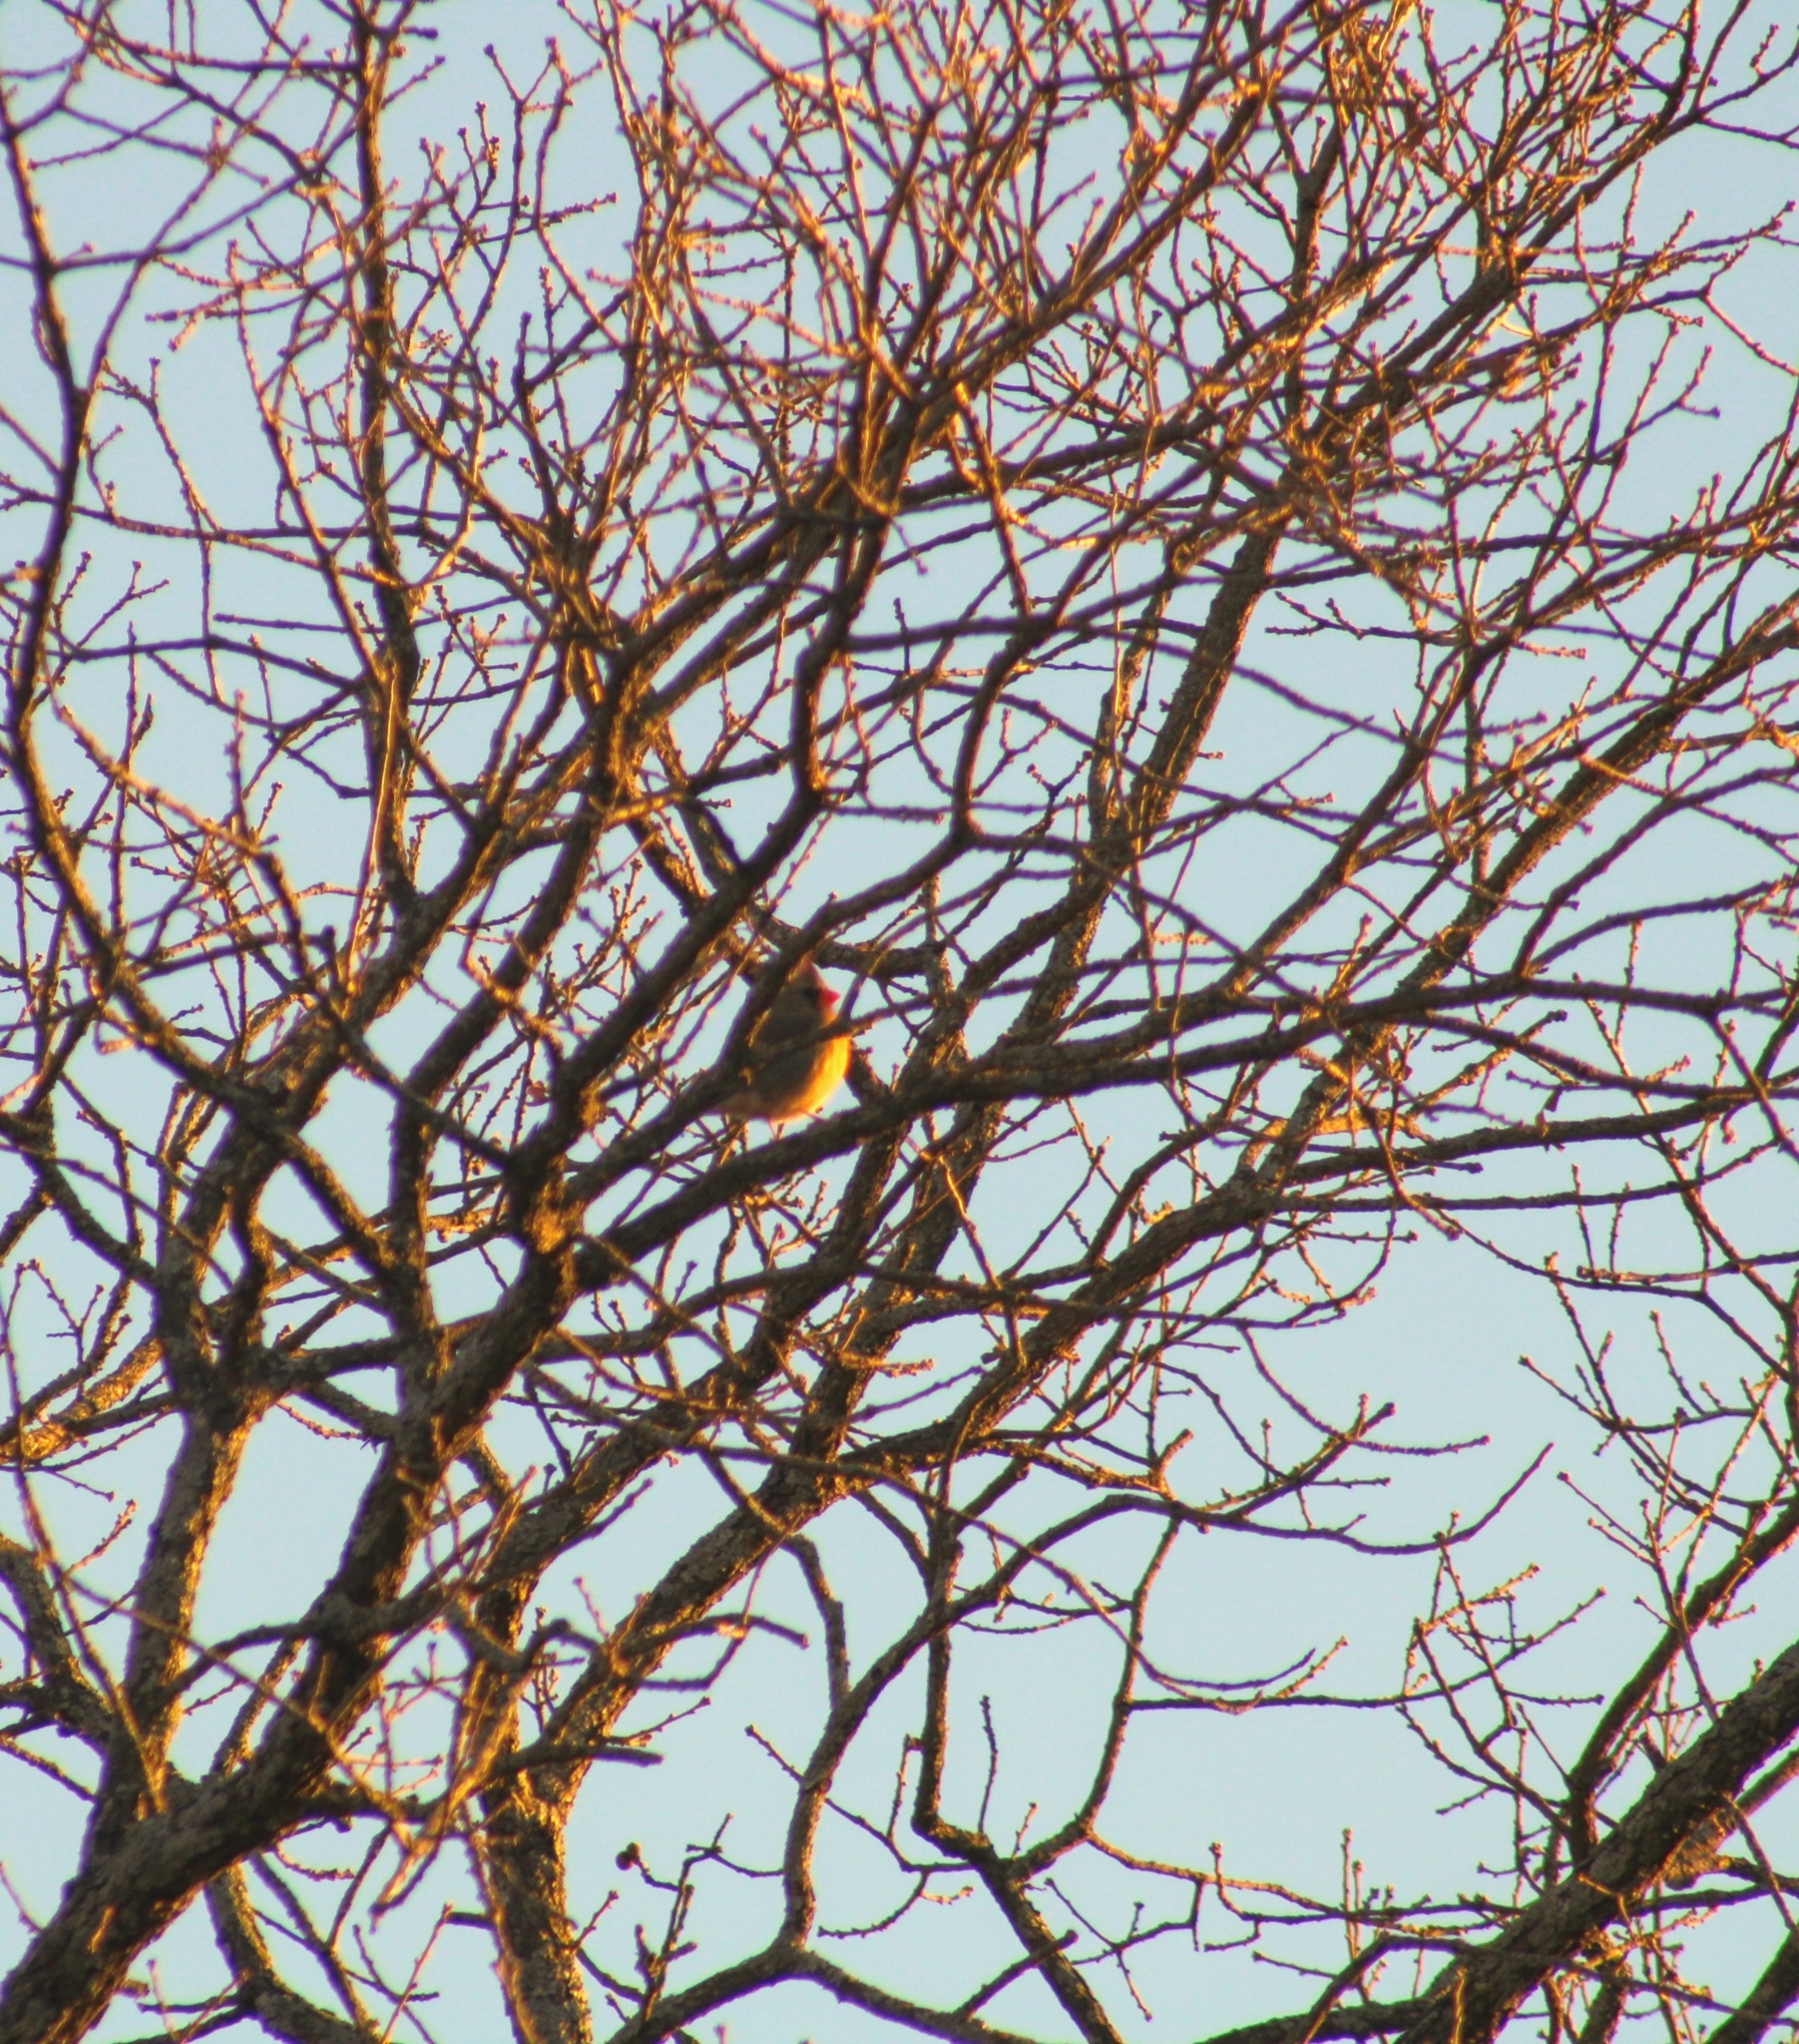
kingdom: Animalia
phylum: Chordata
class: Aves
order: Passeriformes
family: Cardinalidae
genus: Cardinalis
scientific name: Cardinalis cardinalis
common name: Northern cardinal
